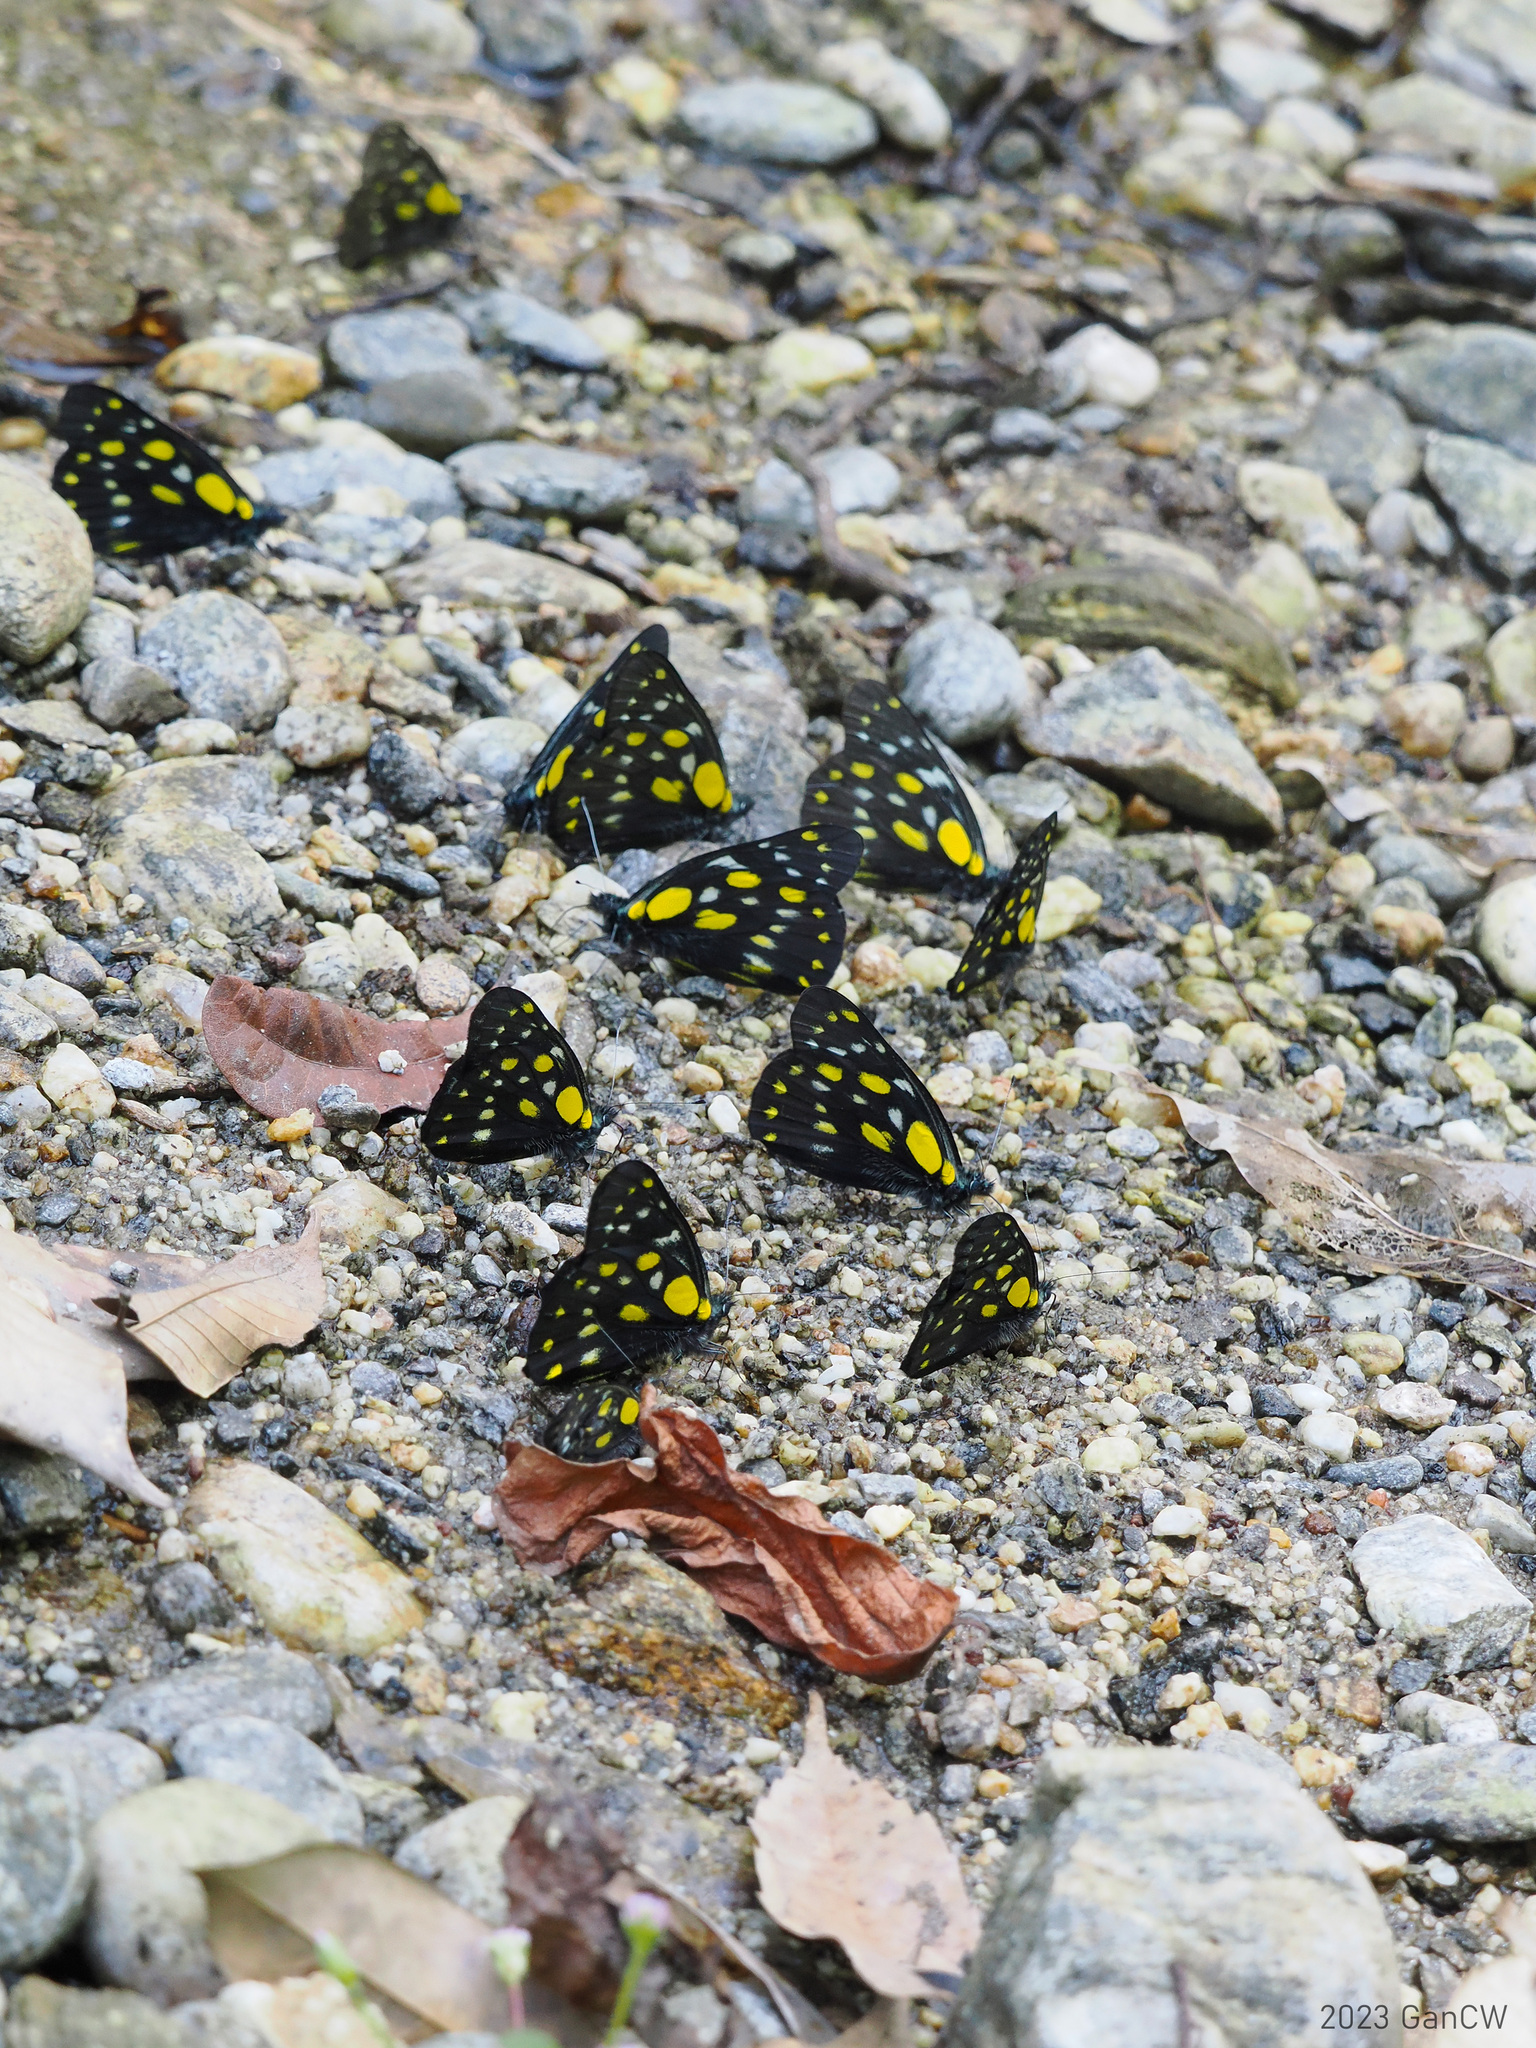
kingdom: Animalia
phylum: Arthropoda
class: Insecta
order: Lepidoptera
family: Pieridae
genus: Delias
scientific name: Delias belladonna
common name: Hill jezebel
